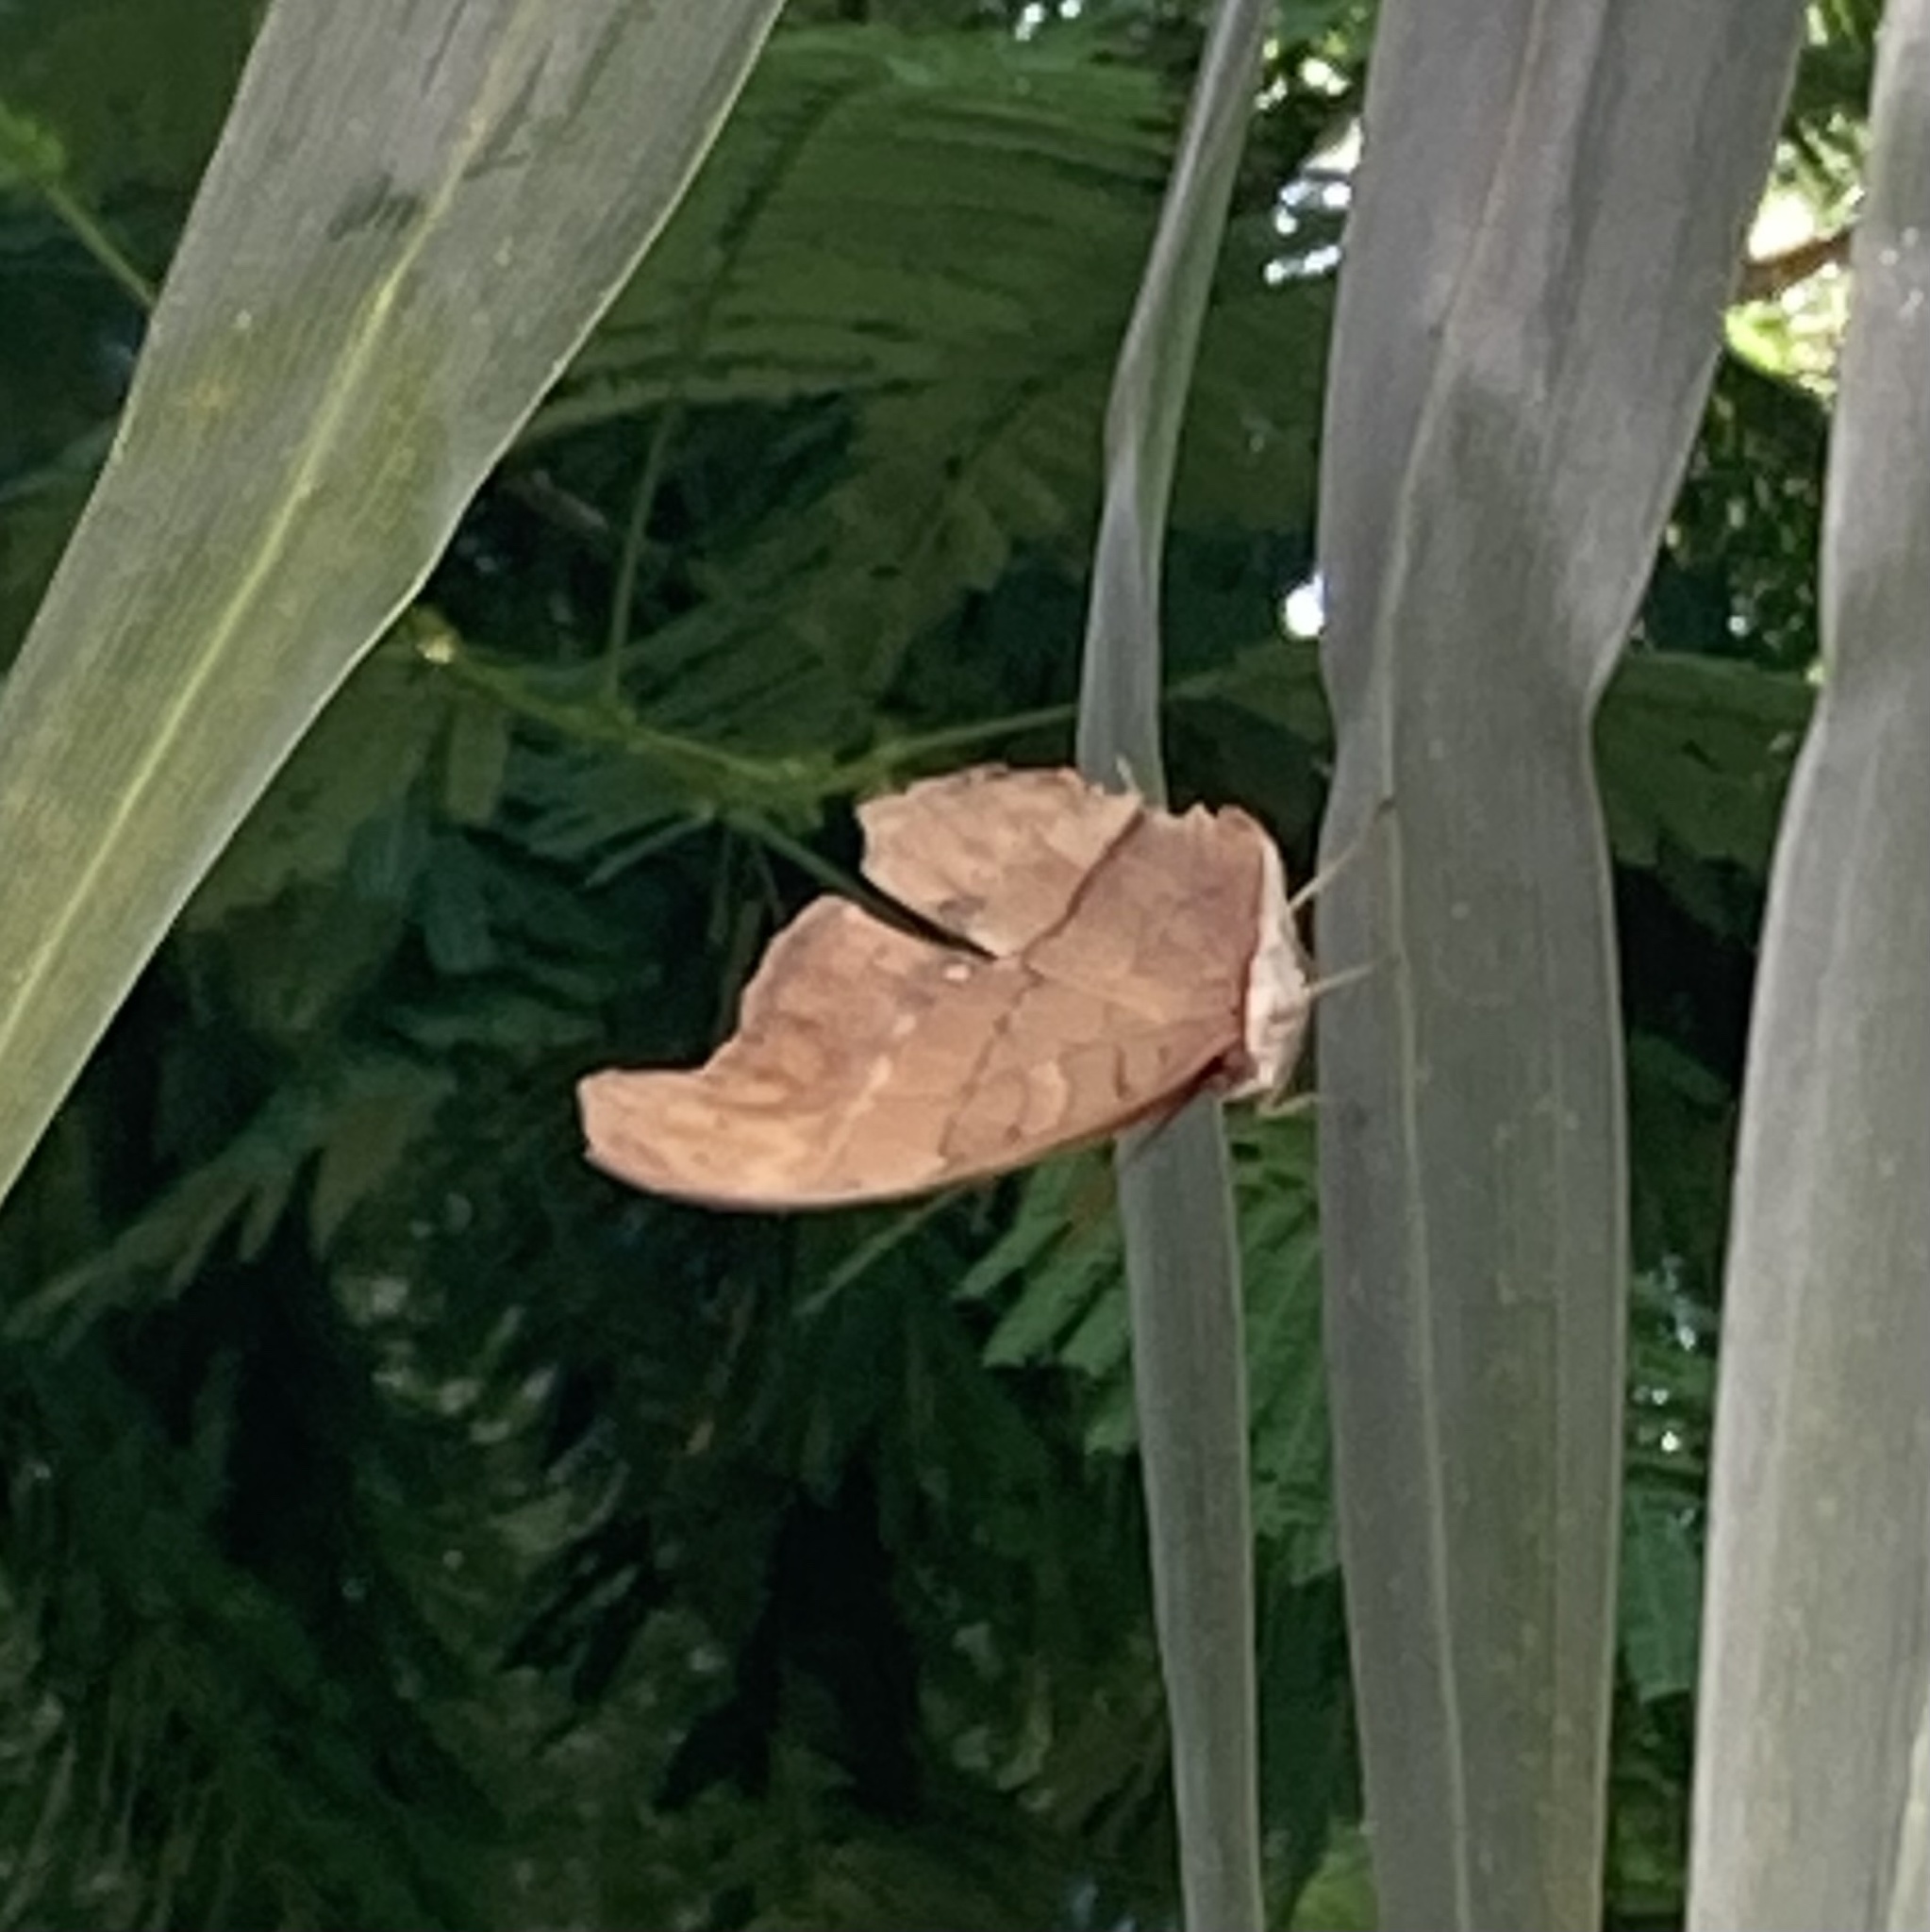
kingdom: Animalia
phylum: Arthropoda
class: Insecta
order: Lepidoptera
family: Nymphalidae
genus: Marpesia
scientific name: Marpesia petreus
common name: Red dagger wing
